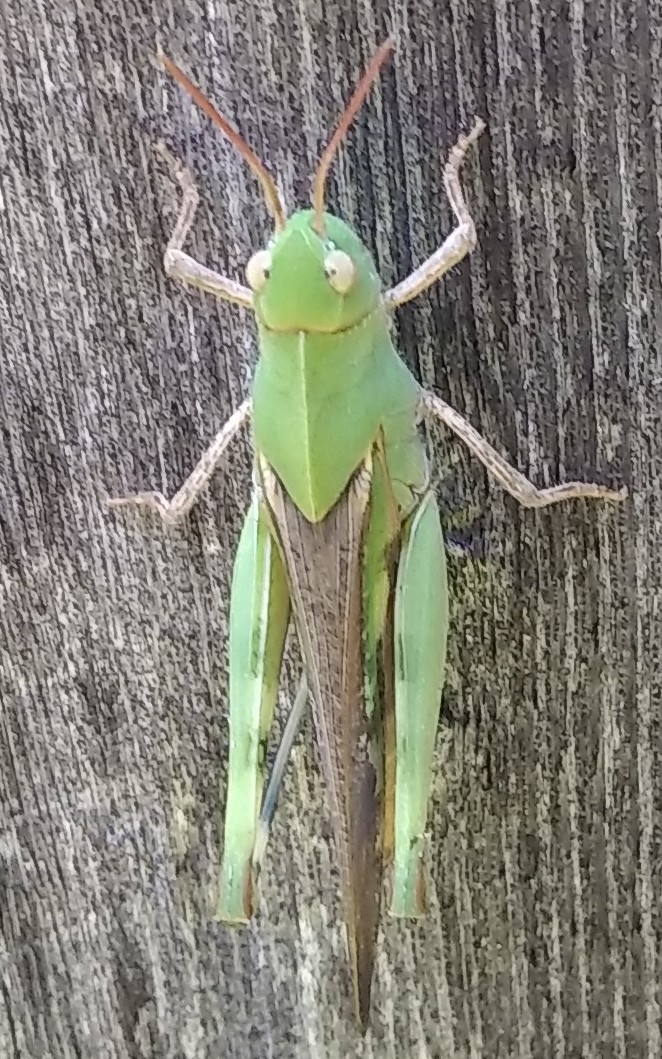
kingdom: Animalia
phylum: Arthropoda
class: Insecta
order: Orthoptera
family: Acrididae
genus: Chortophaga
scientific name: Chortophaga viridifasciata
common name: Green-striped grasshopper
